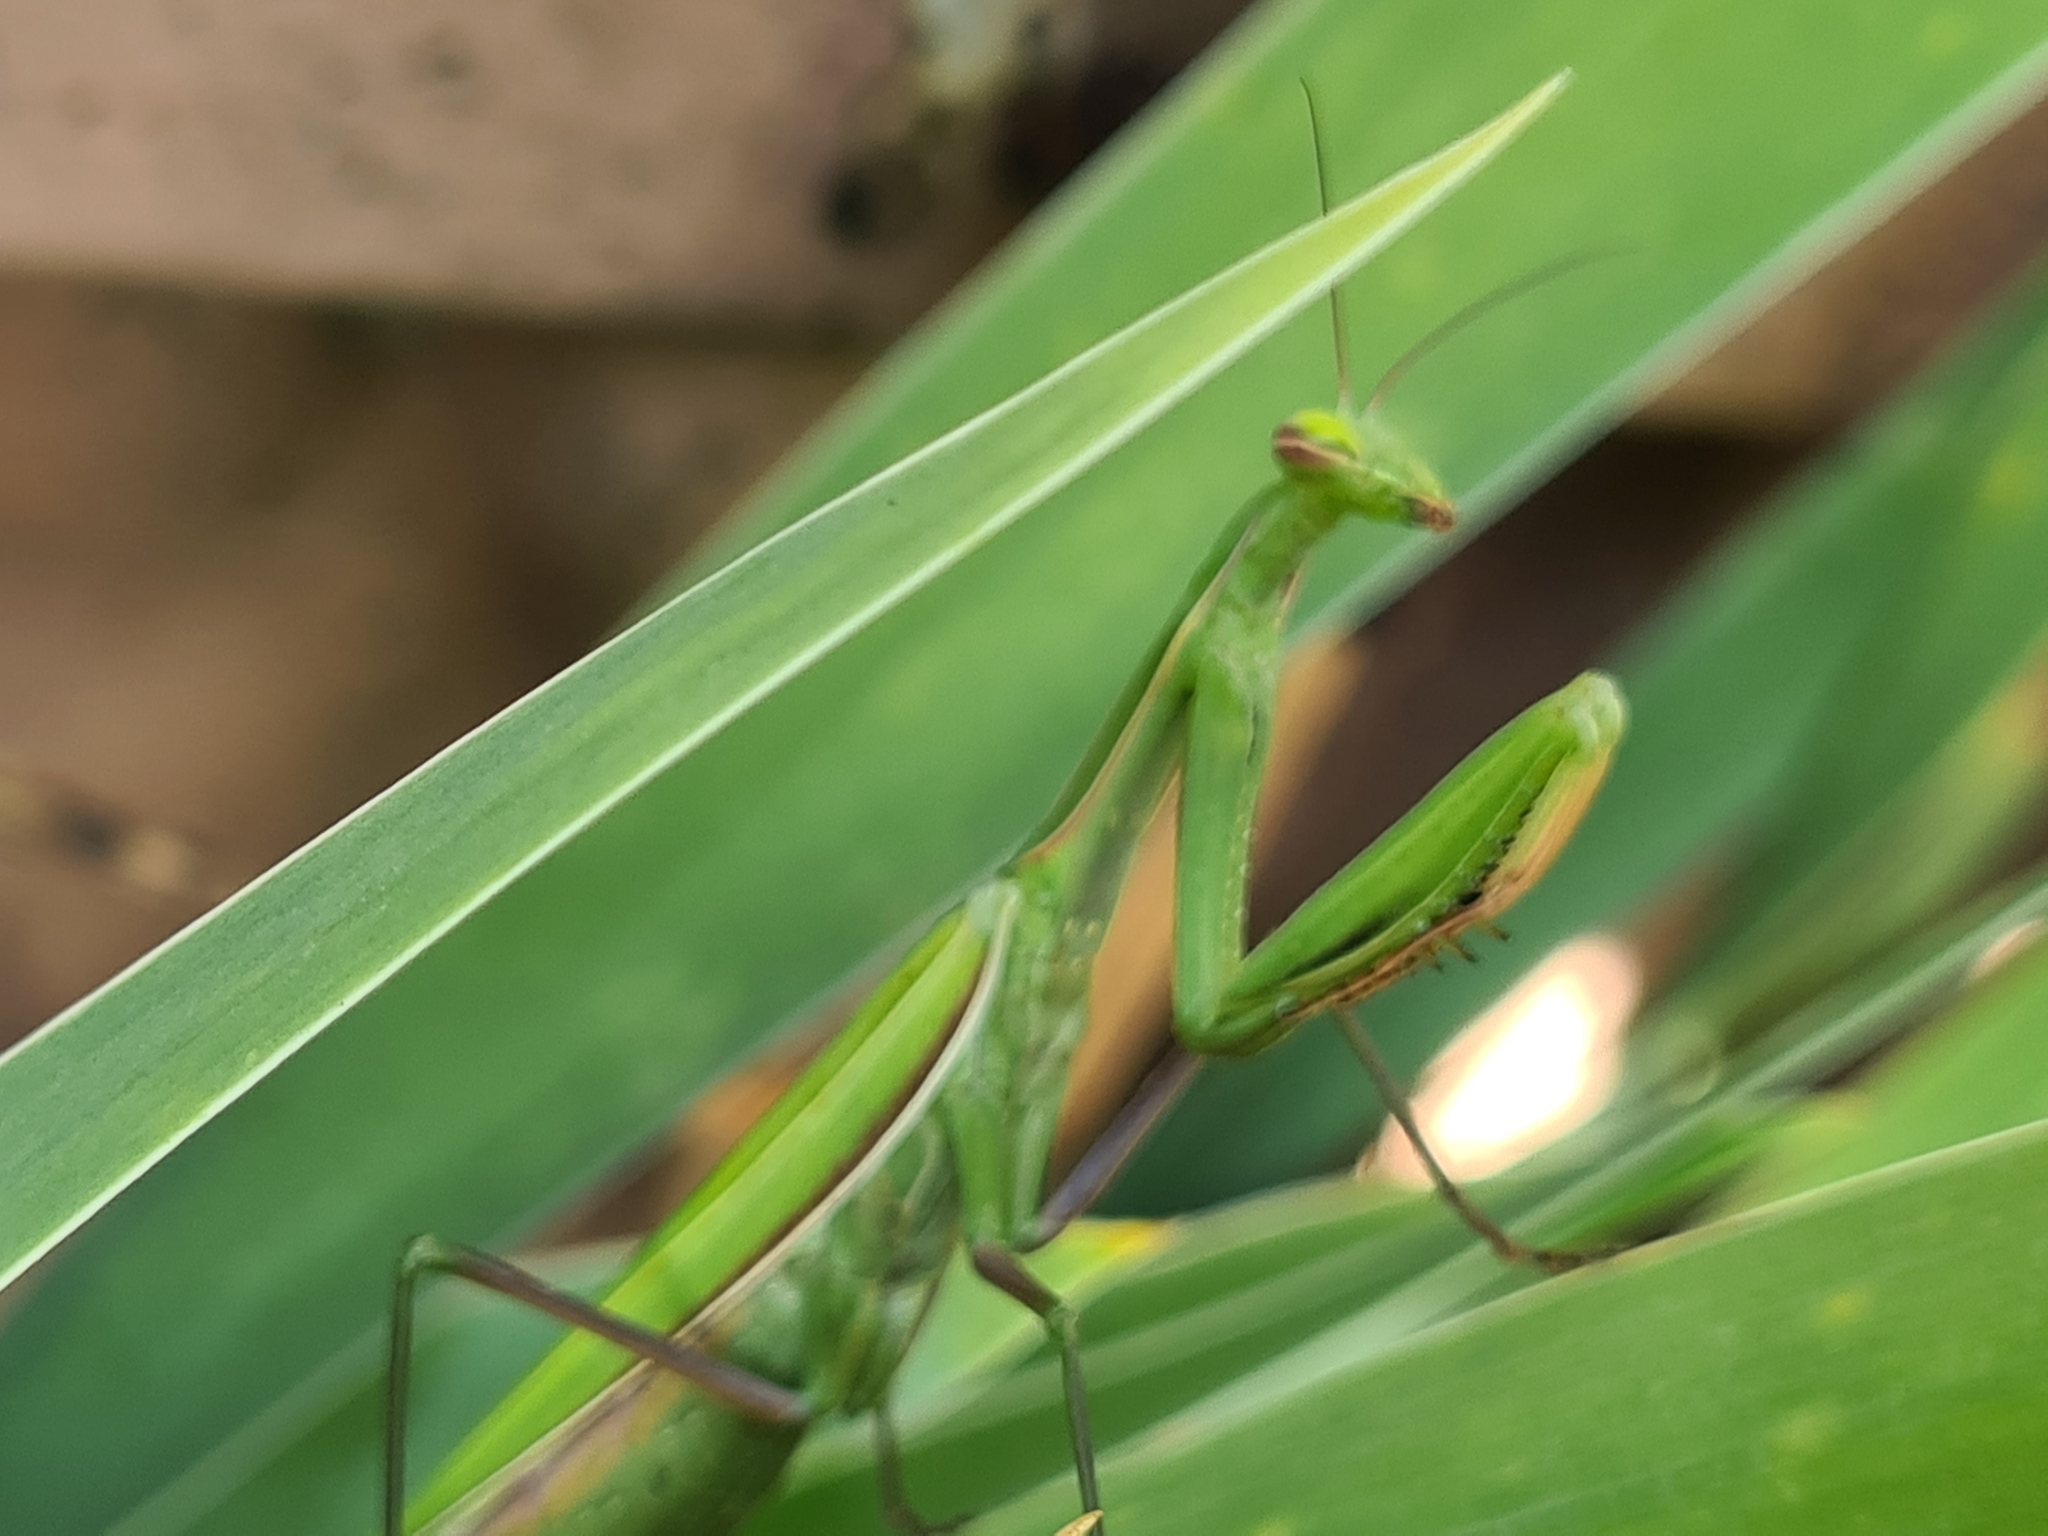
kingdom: Animalia
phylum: Arthropoda
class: Insecta
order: Mantodea
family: Mantidae
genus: Mantis
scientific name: Mantis religiosa
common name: Praying mantis
